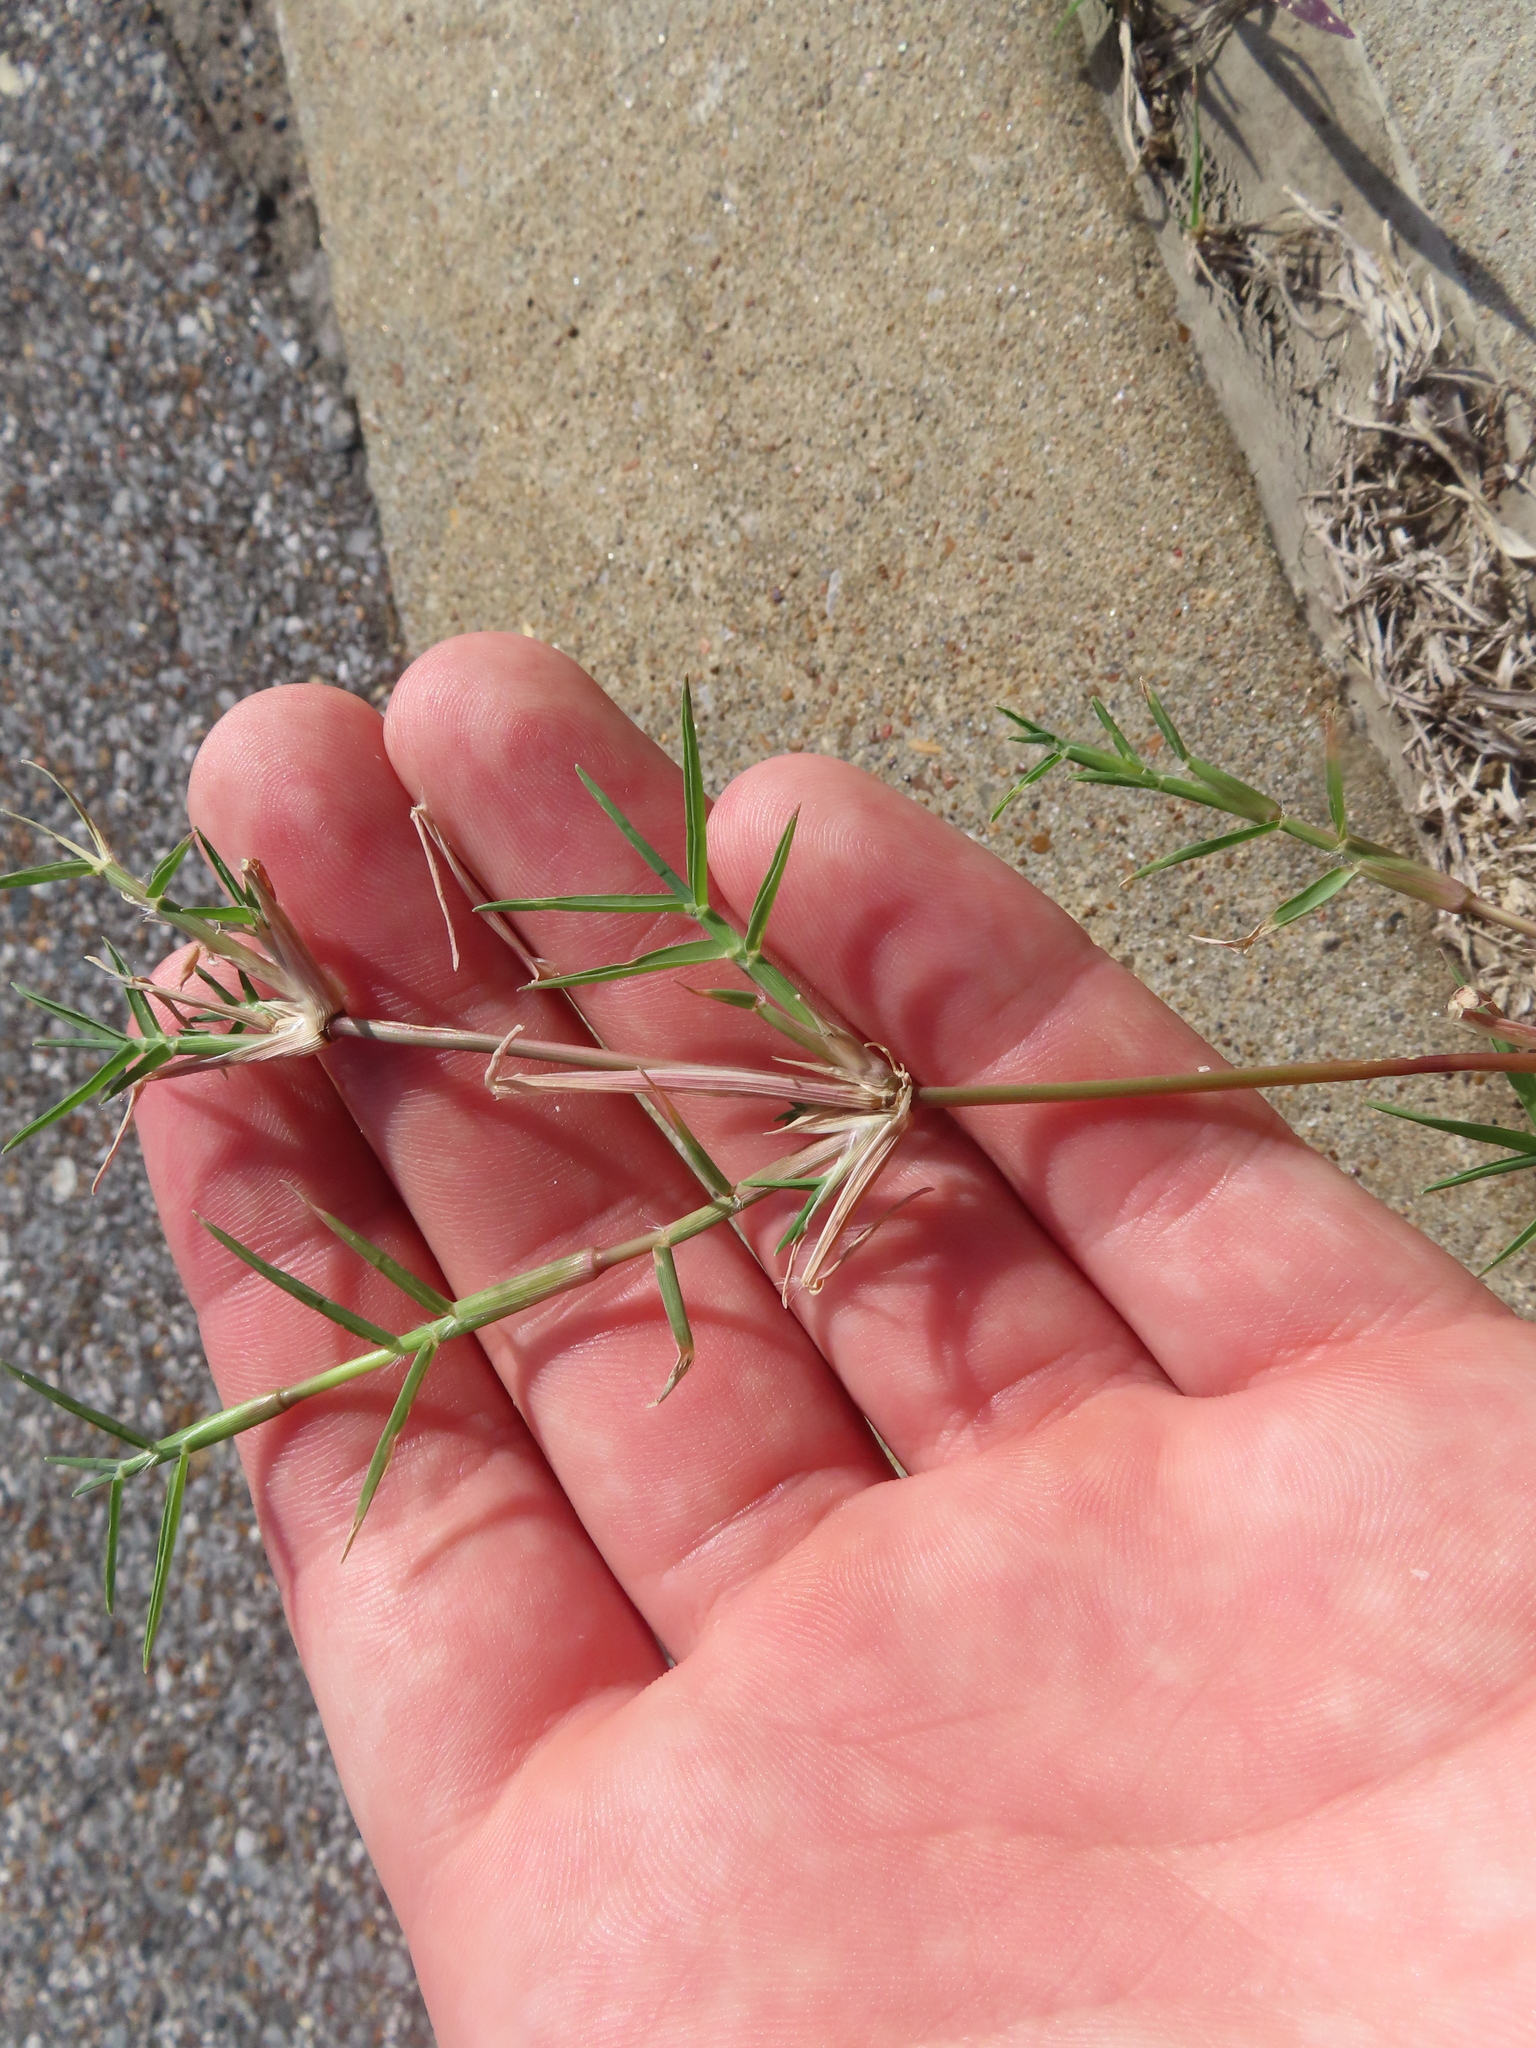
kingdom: Plantae
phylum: Tracheophyta
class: Liliopsida
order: Poales
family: Poaceae
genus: Cynodon
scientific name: Cynodon dactylon
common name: Bermuda grass
